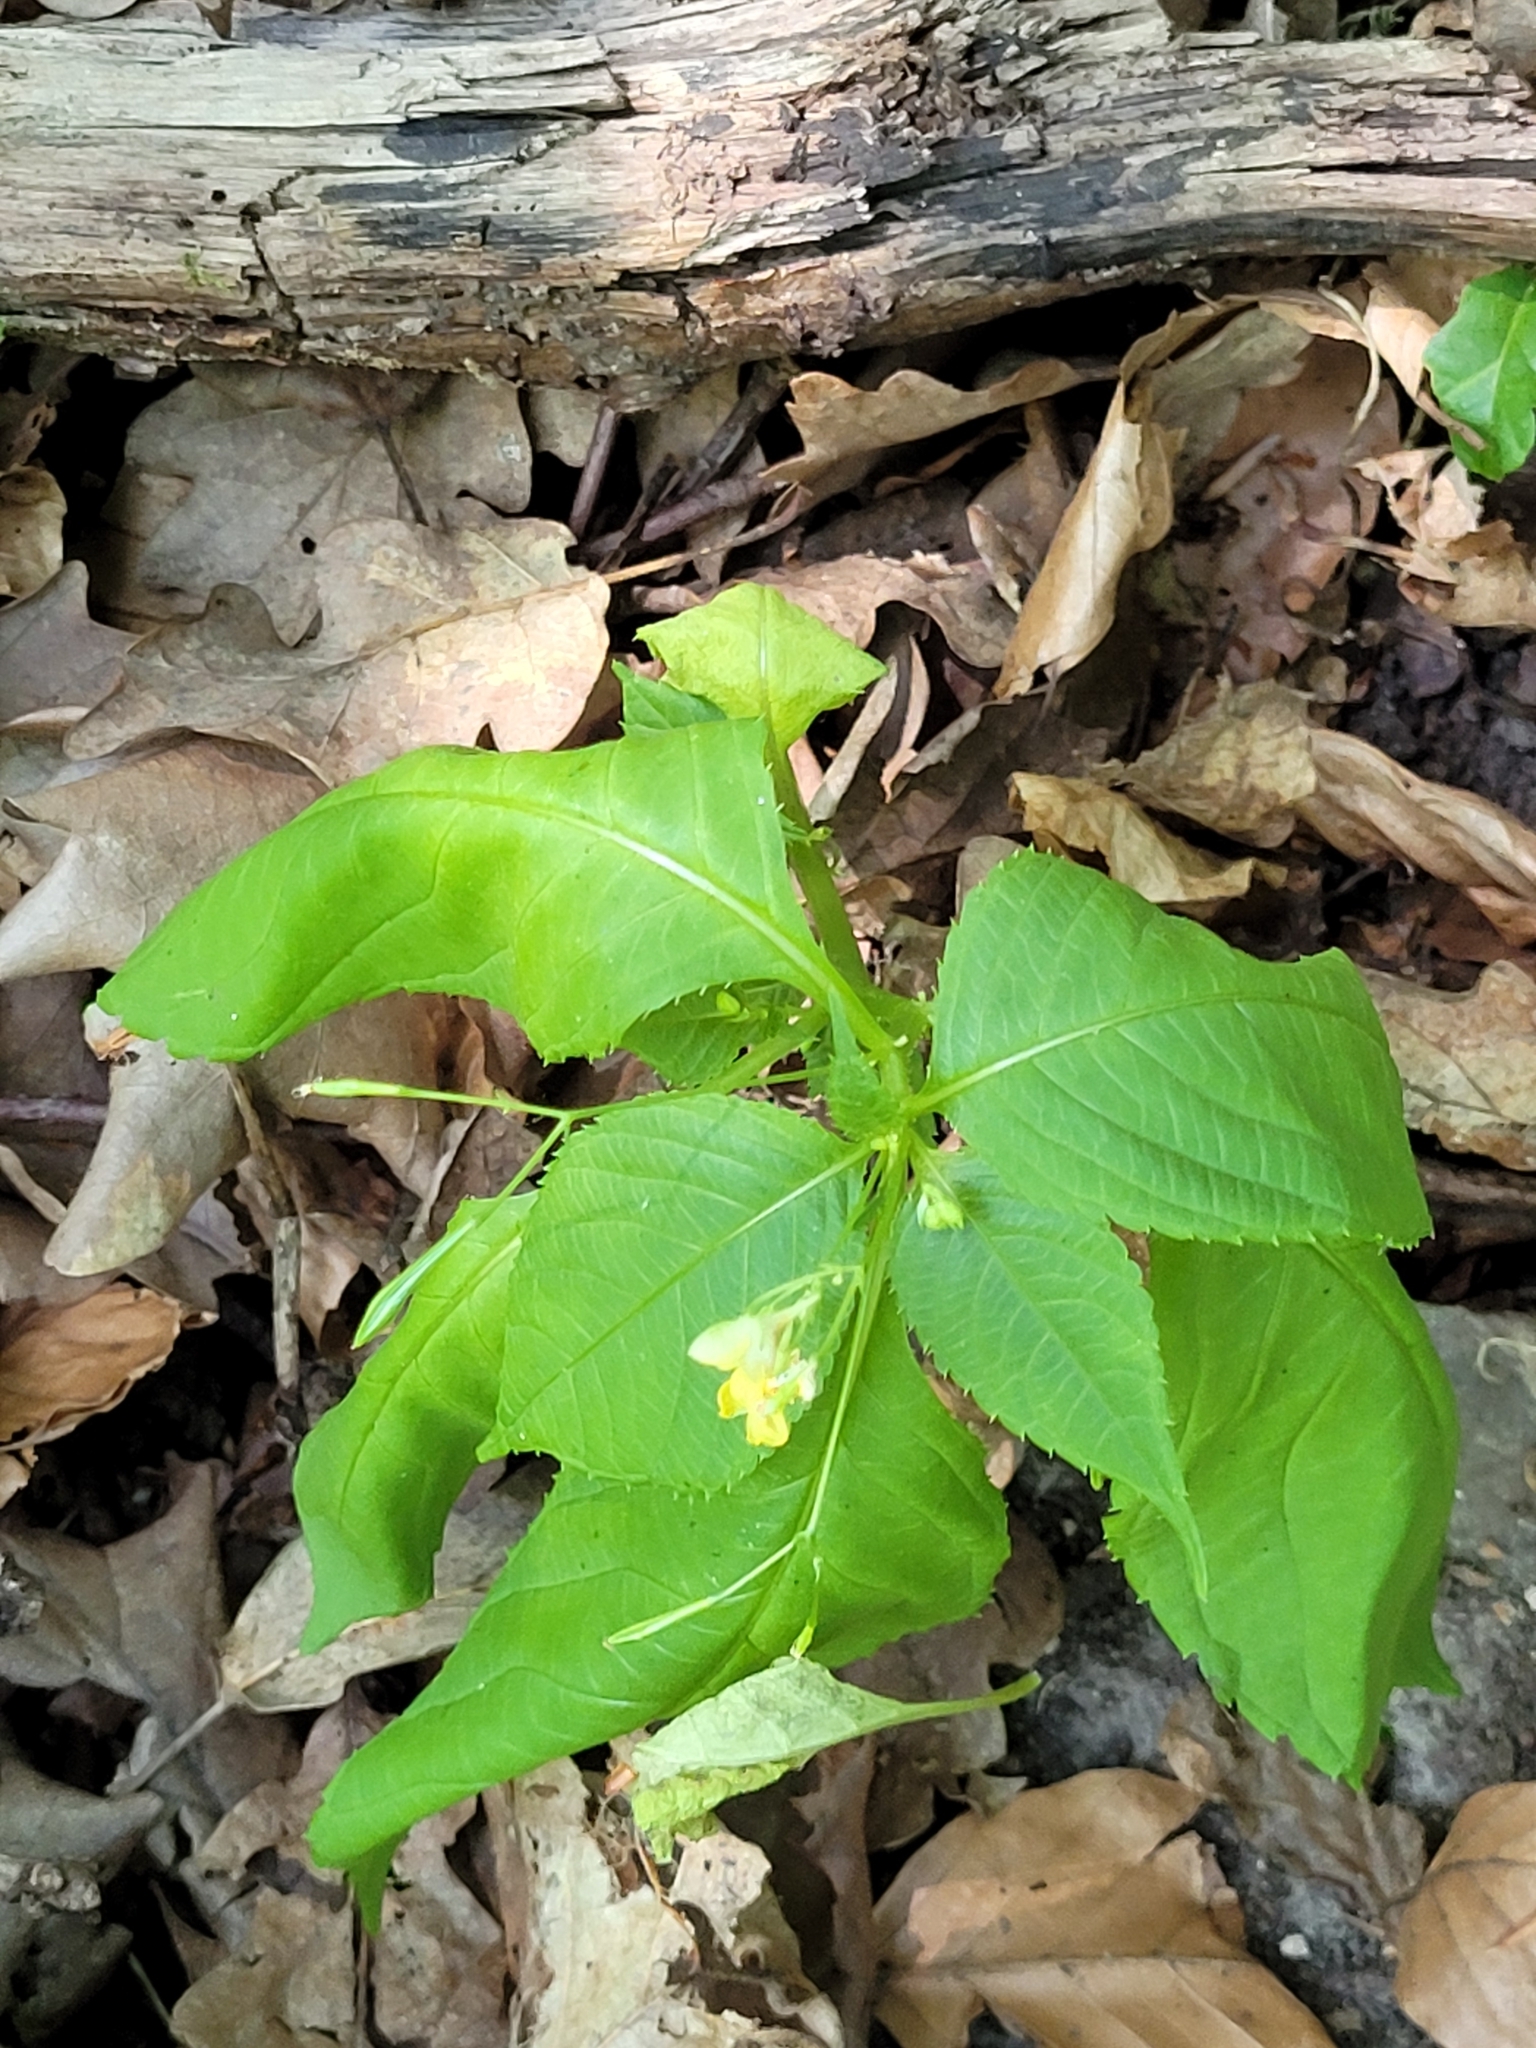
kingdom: Plantae
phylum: Tracheophyta
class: Magnoliopsida
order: Ericales
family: Balsaminaceae
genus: Impatiens
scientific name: Impatiens parviflora
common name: Small balsam
